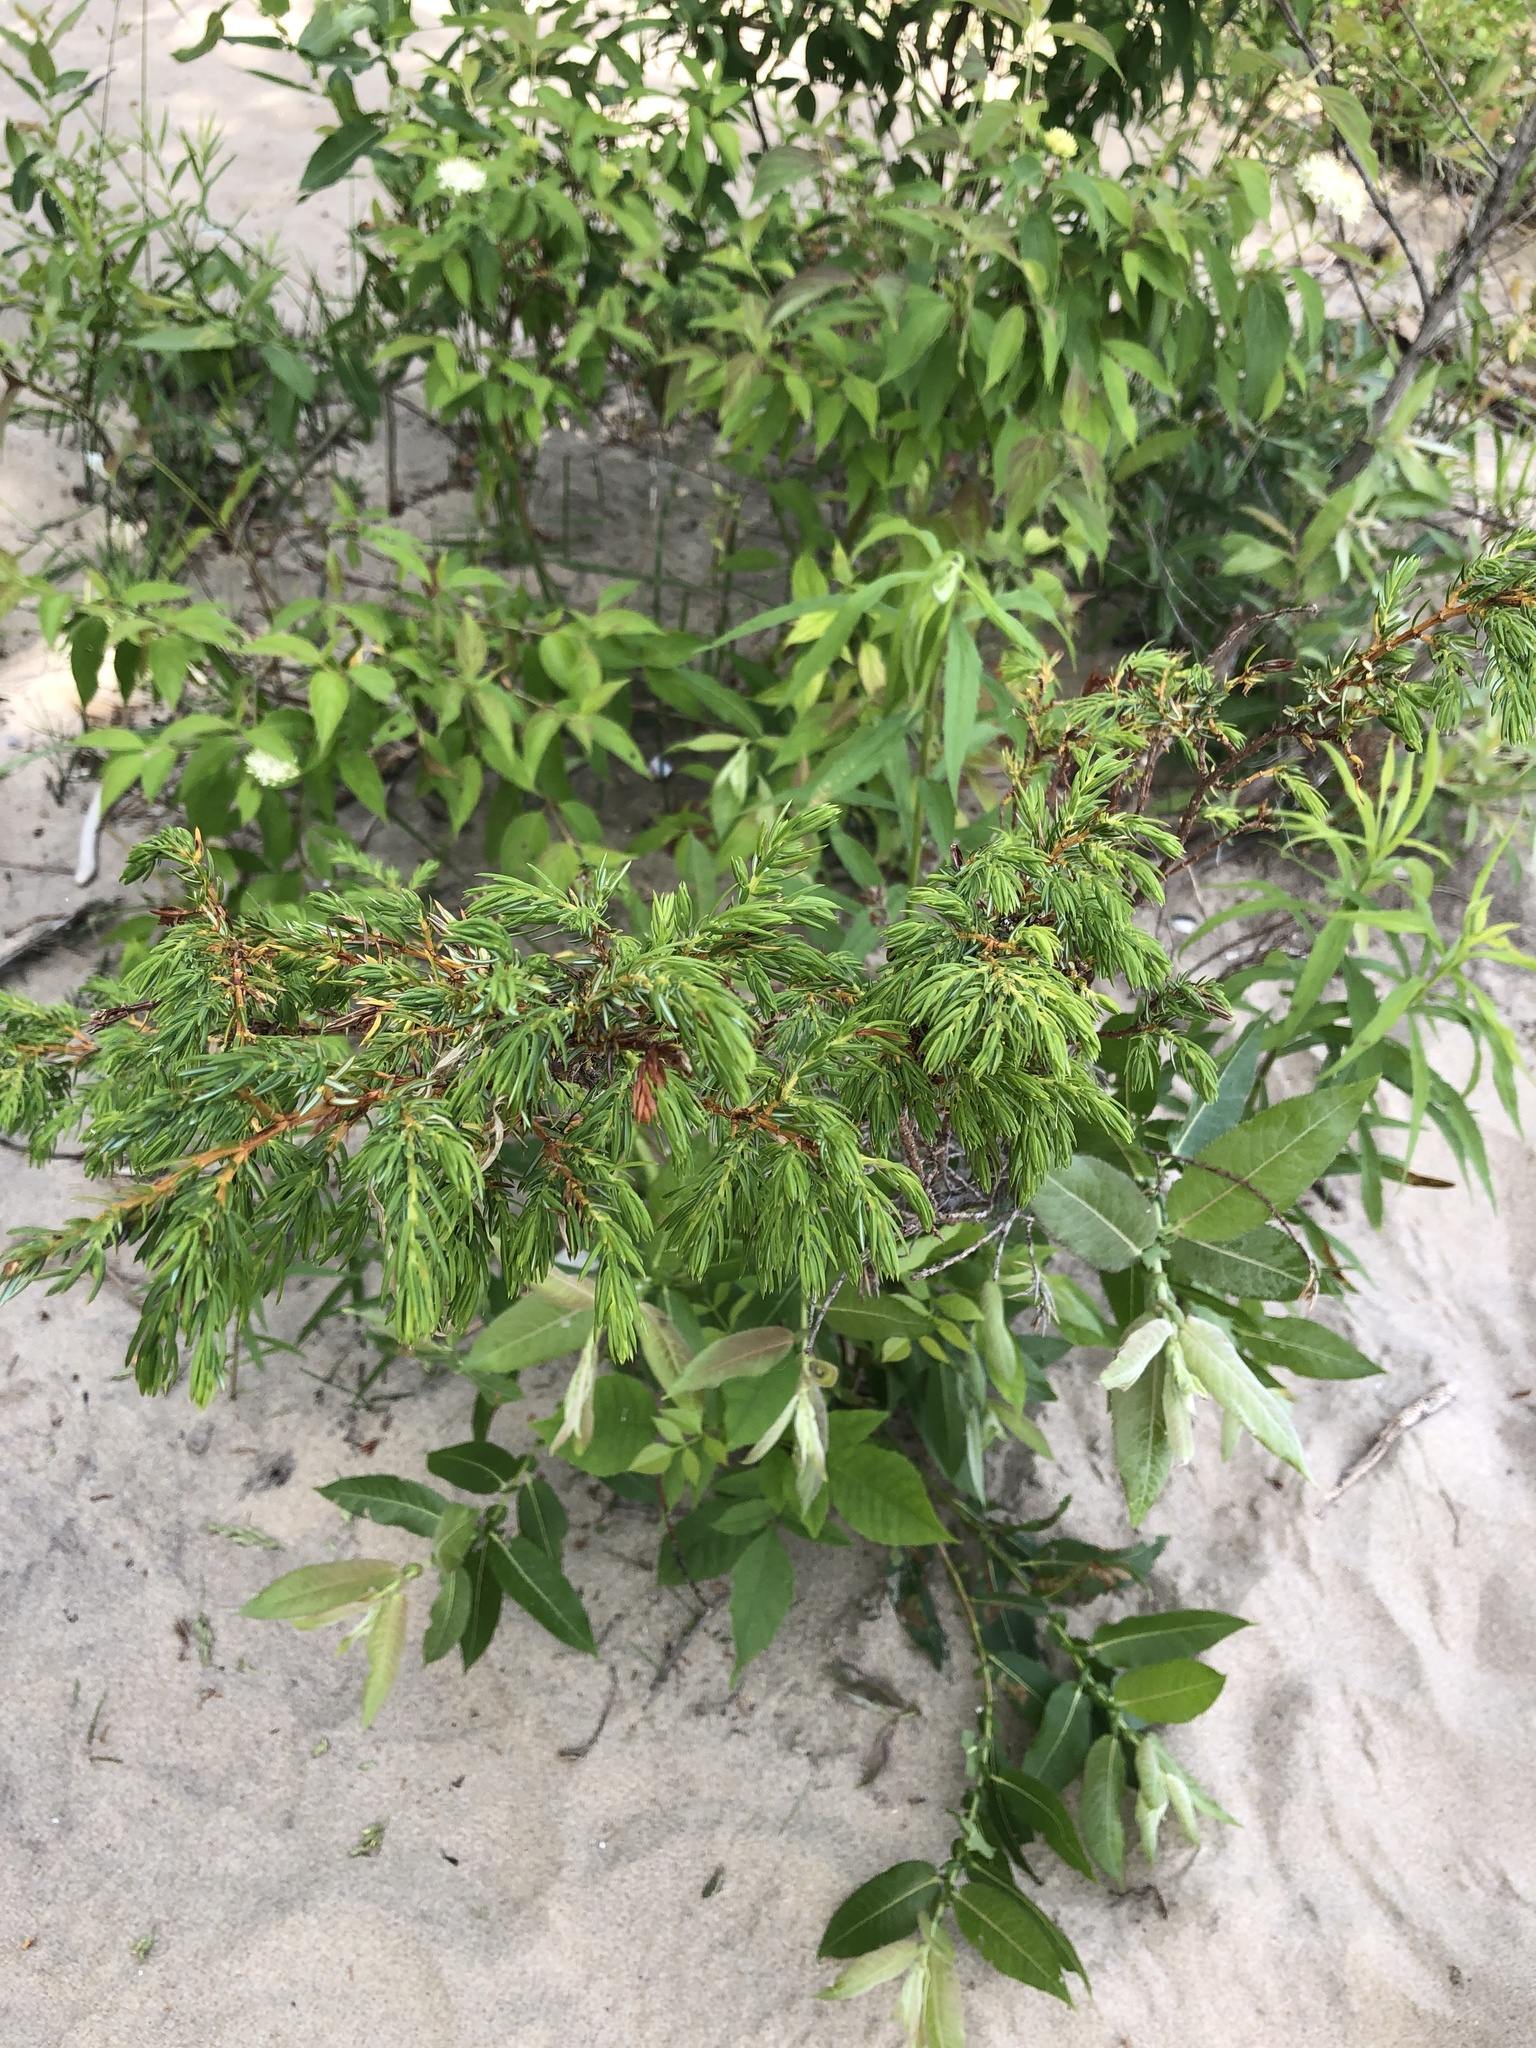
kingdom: Plantae
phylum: Tracheophyta
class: Pinopsida
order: Pinales
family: Cupressaceae
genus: Juniperus
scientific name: Juniperus communis
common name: Common juniper
